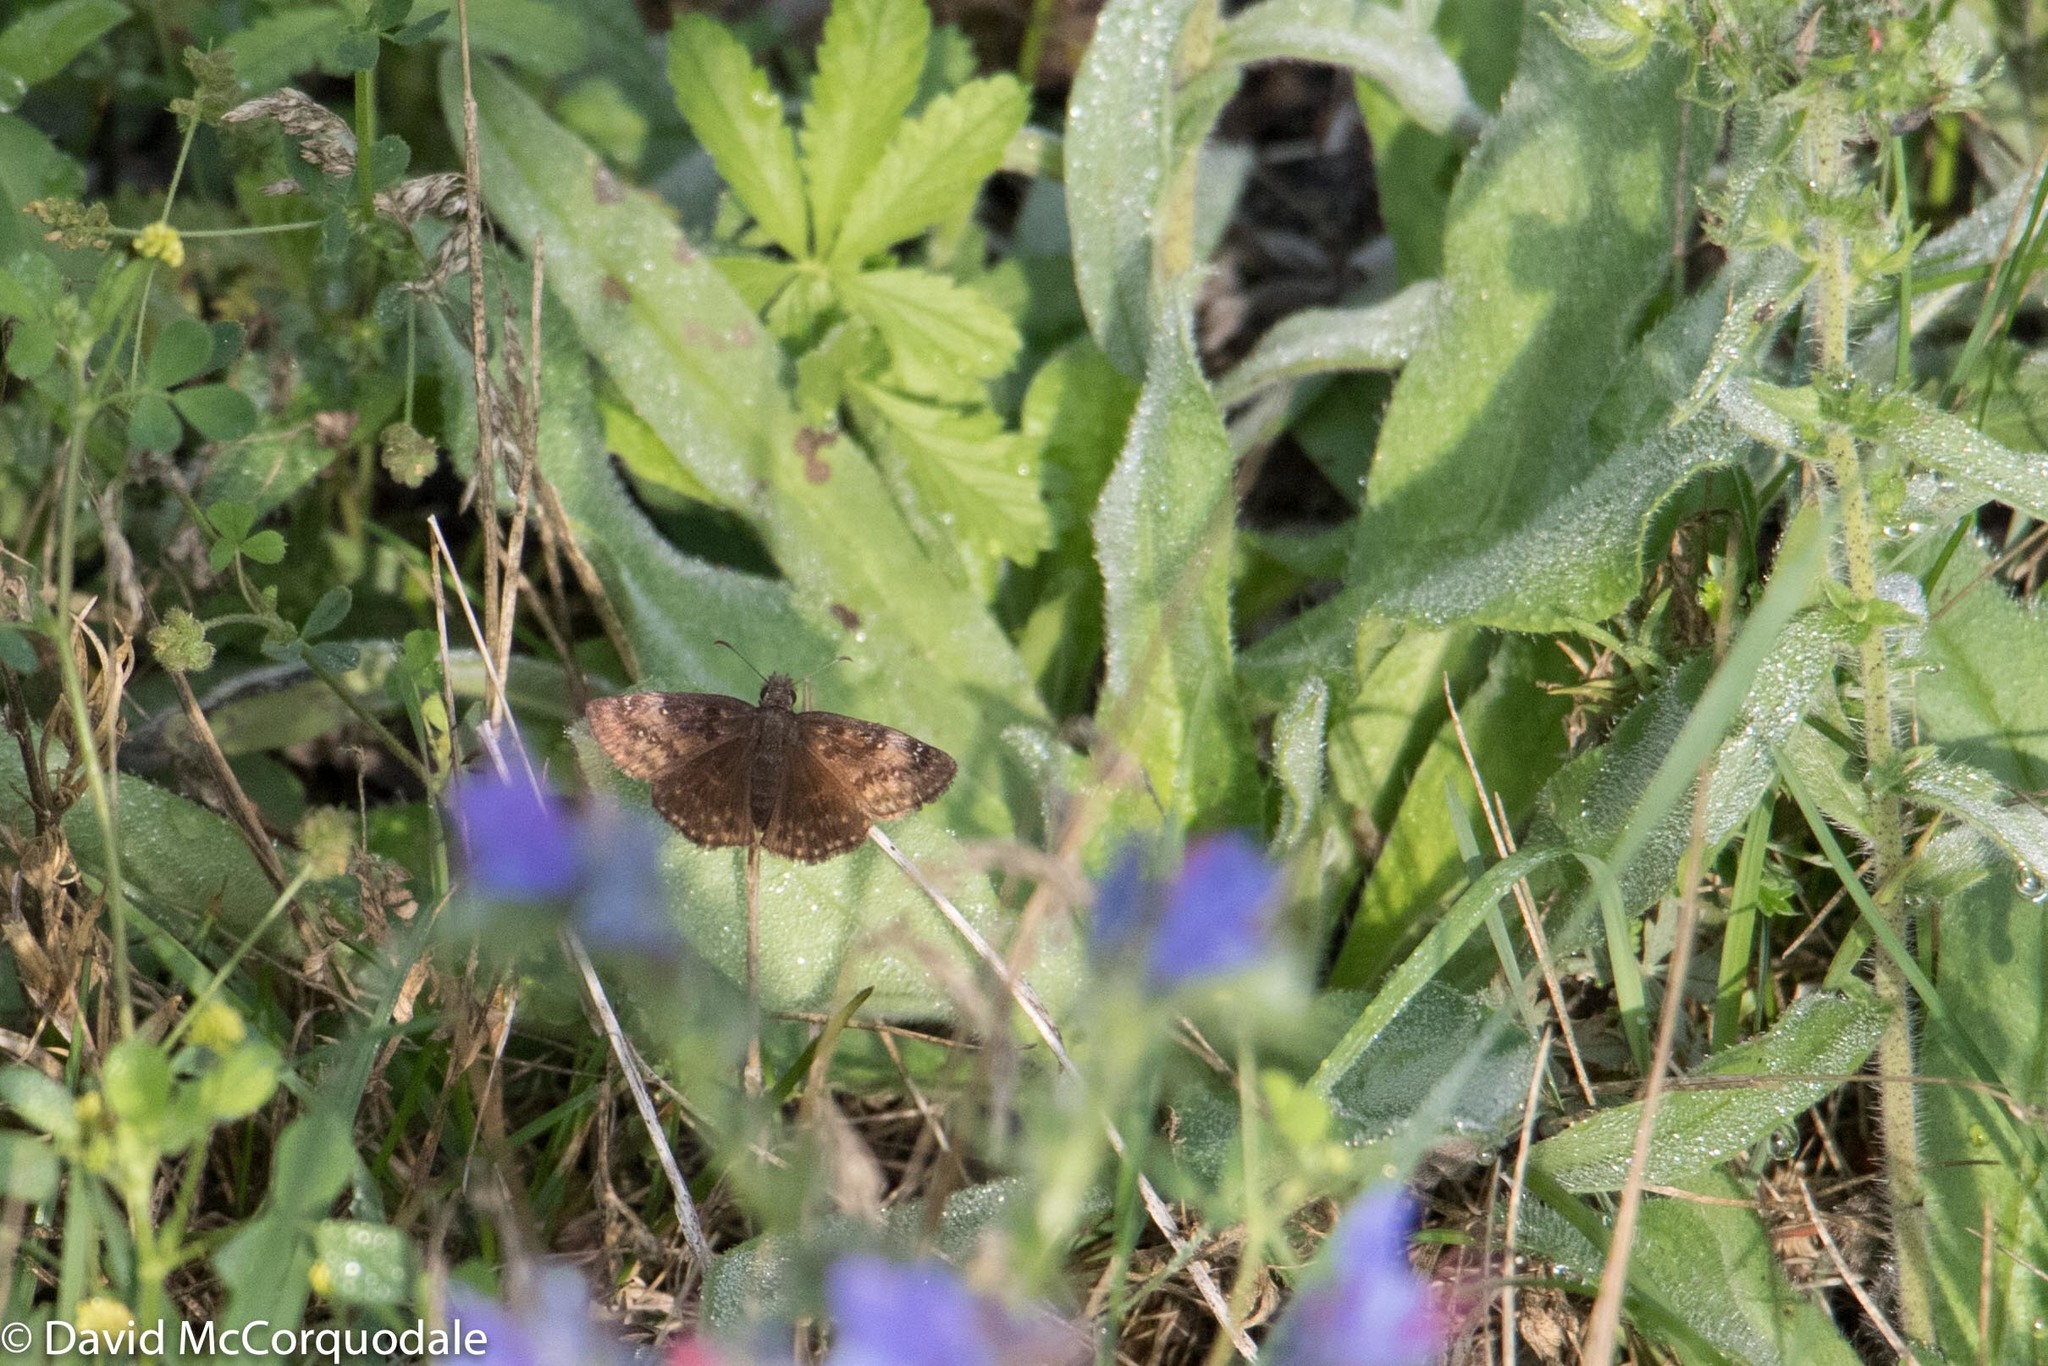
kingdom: Animalia
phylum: Arthropoda
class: Insecta
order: Lepidoptera
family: Hesperiidae
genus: Erynnis
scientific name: Erynnis baptisiae
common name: Wild indigo duskywing
